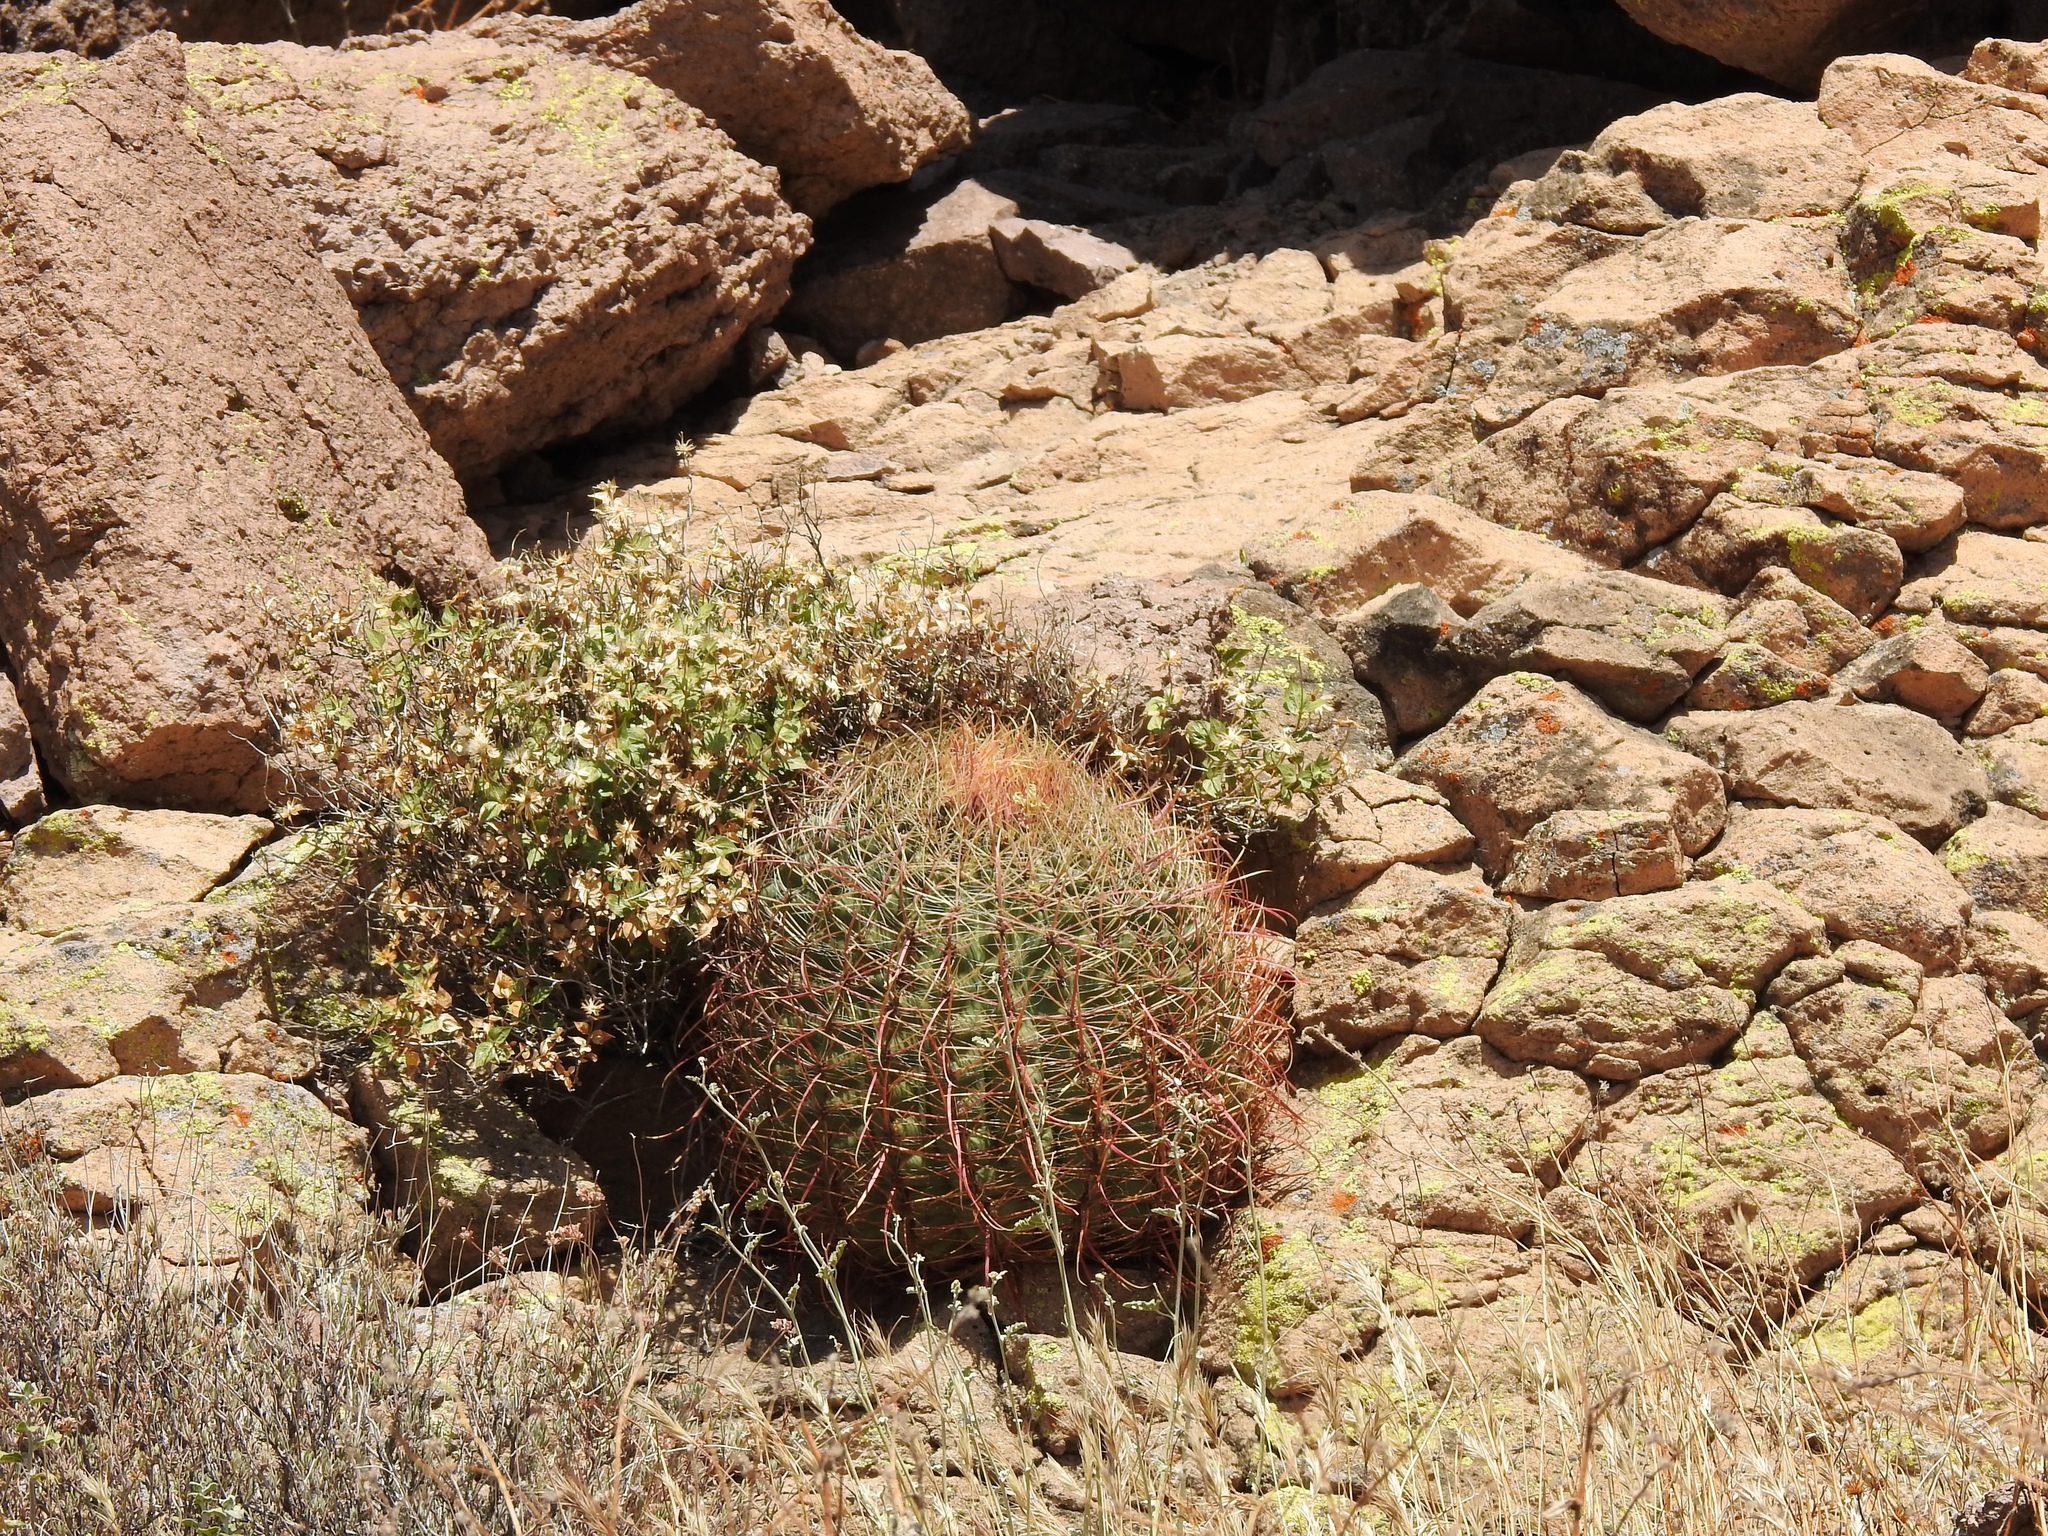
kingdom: Plantae
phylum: Tracheophyta
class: Magnoliopsida
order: Caryophyllales
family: Cactaceae
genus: Ferocactus
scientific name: Ferocactus cylindraceus
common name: California barrel cactus
